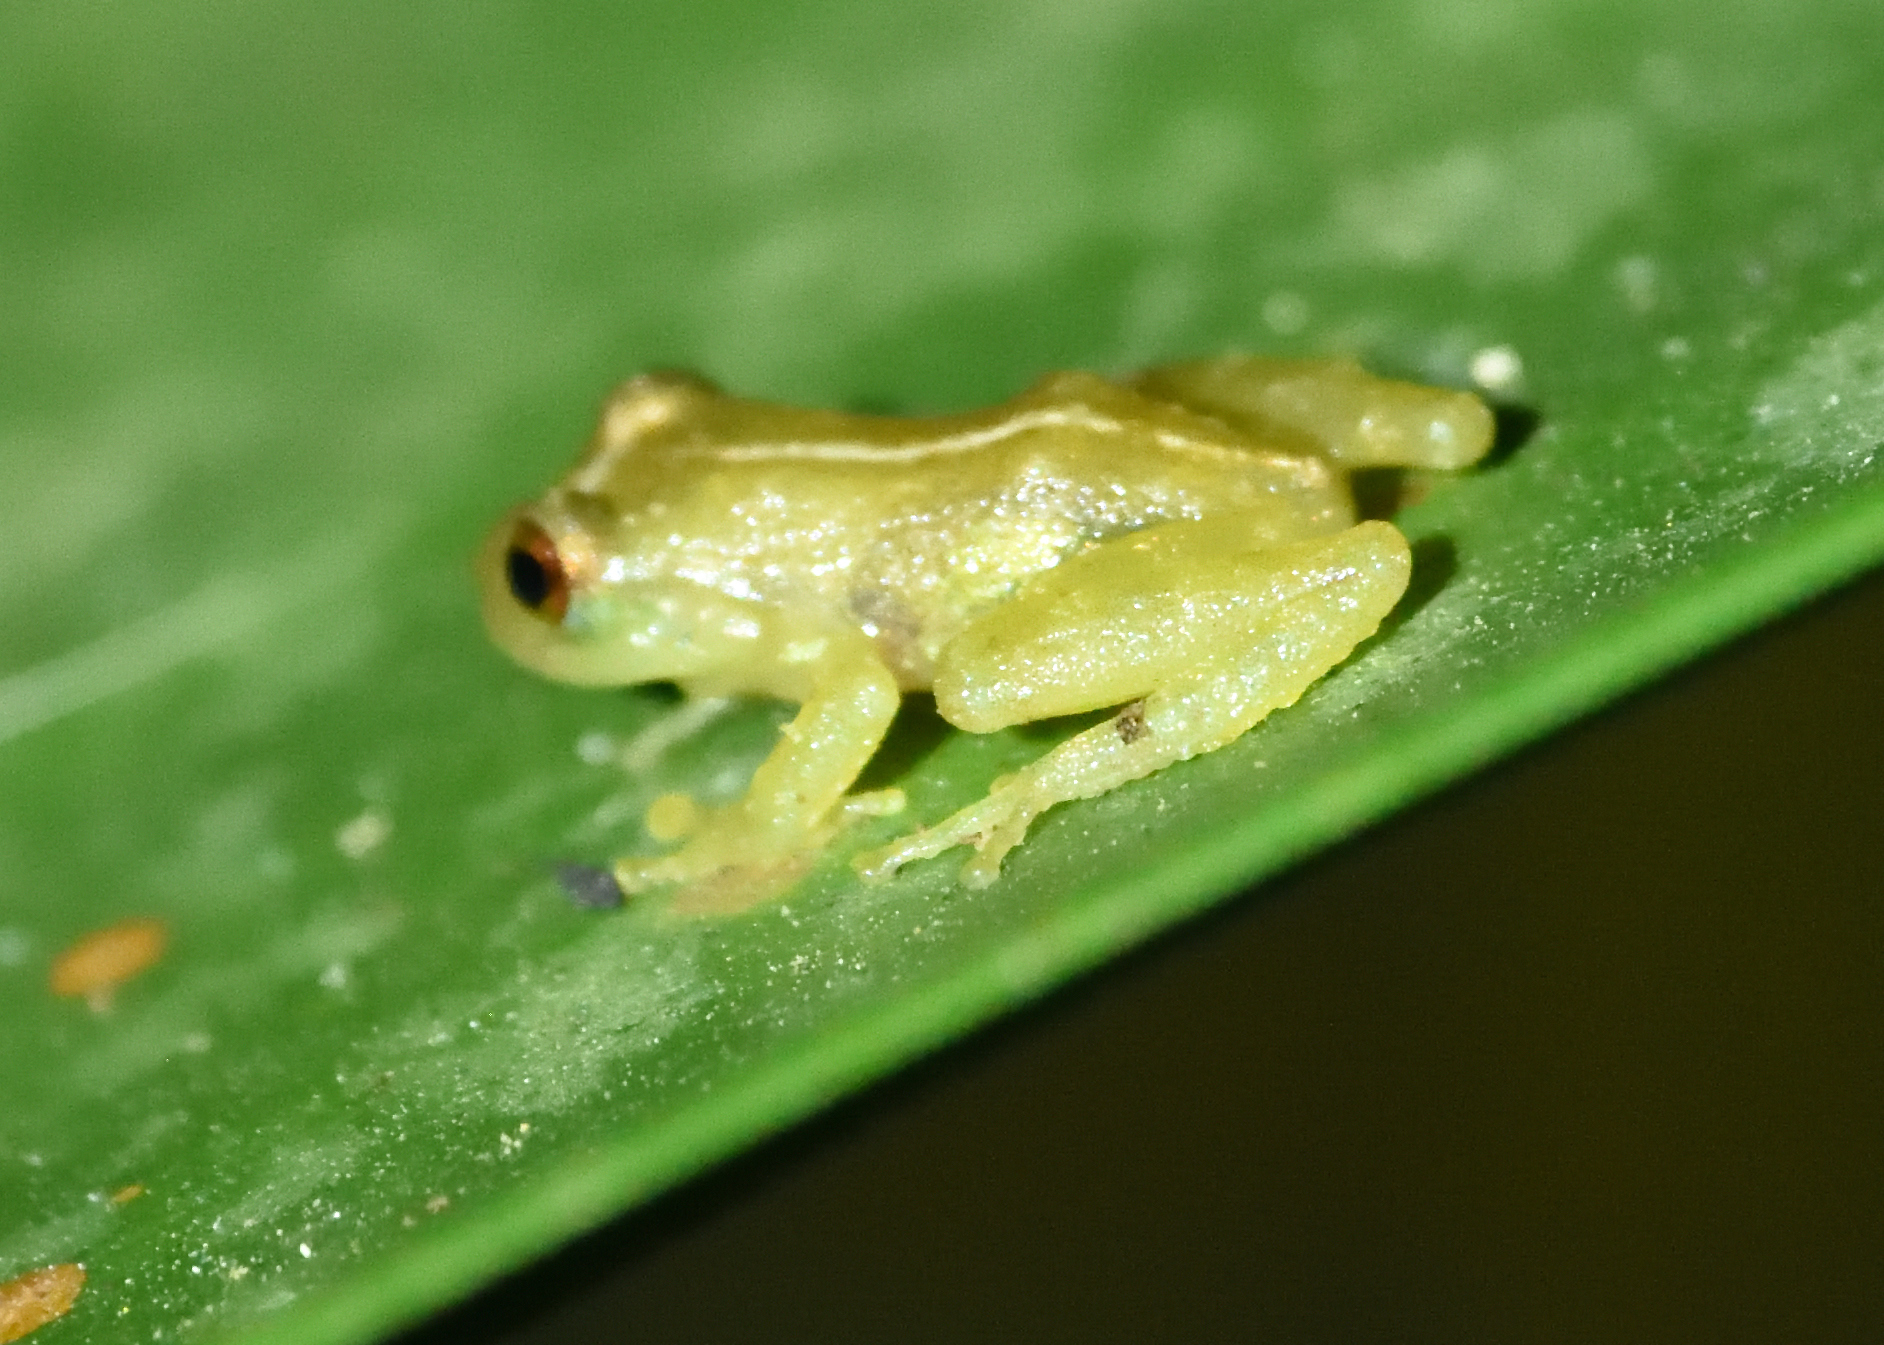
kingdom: Animalia
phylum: Chordata
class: Amphibia
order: Anura
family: Craugastoridae
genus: Tachiramantis
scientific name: Tachiramantis
